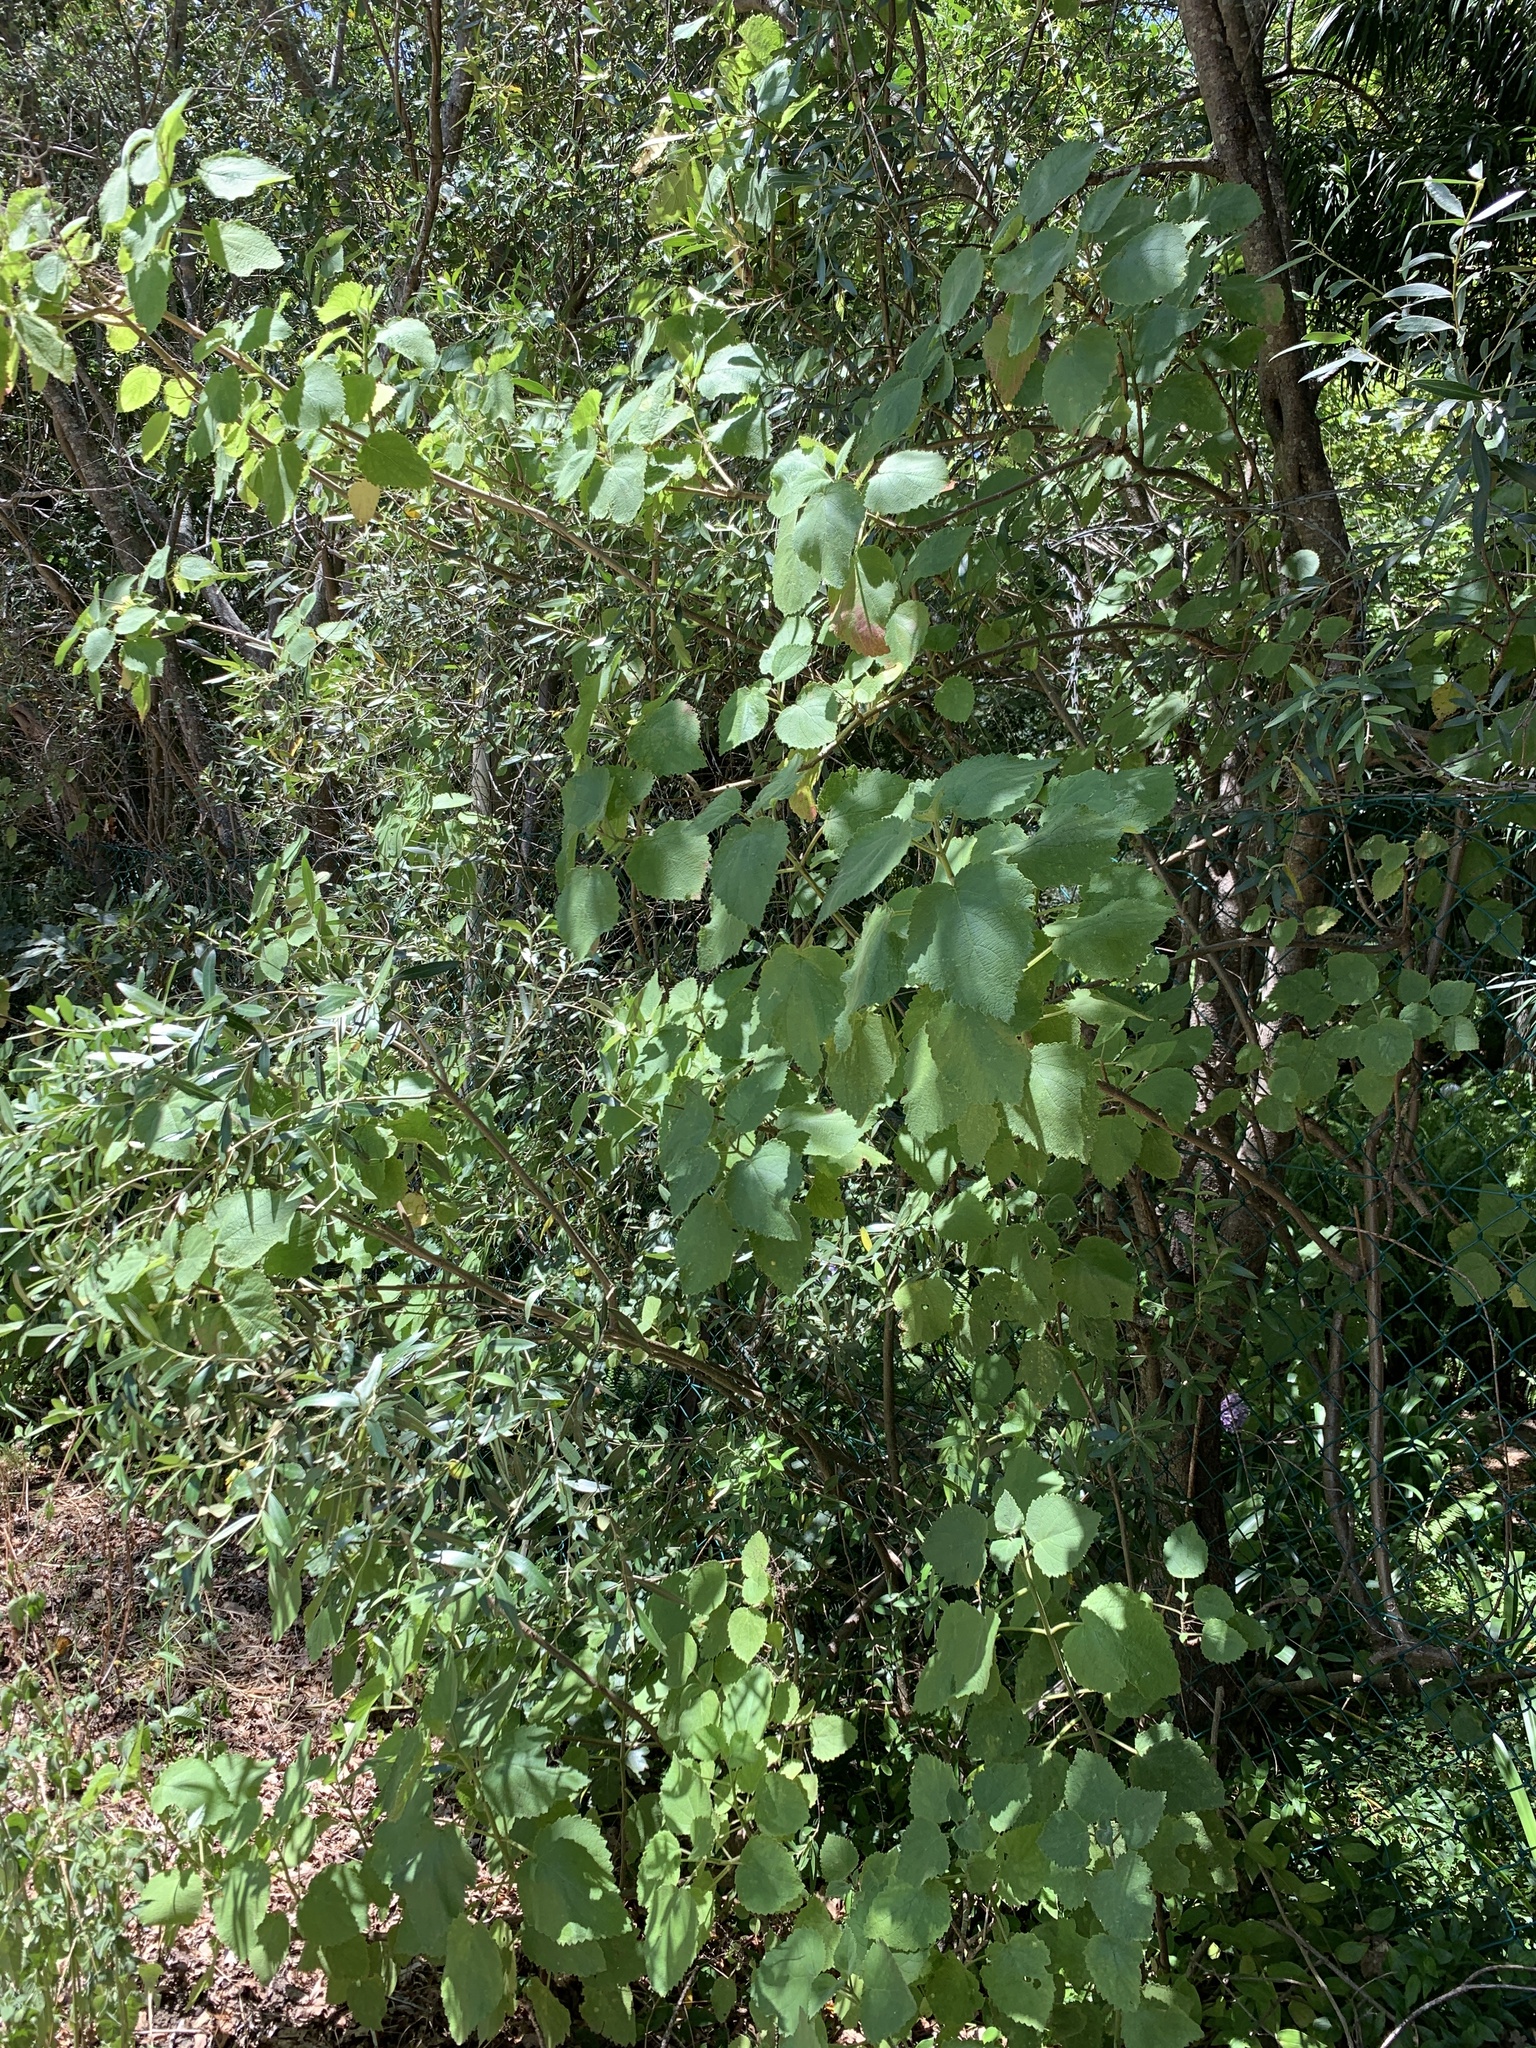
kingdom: Plantae
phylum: Tracheophyta
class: Magnoliopsida
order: Lamiales
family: Lamiaceae
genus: Tetradenia
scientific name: Tetradenia riparia
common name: Gingerbush
